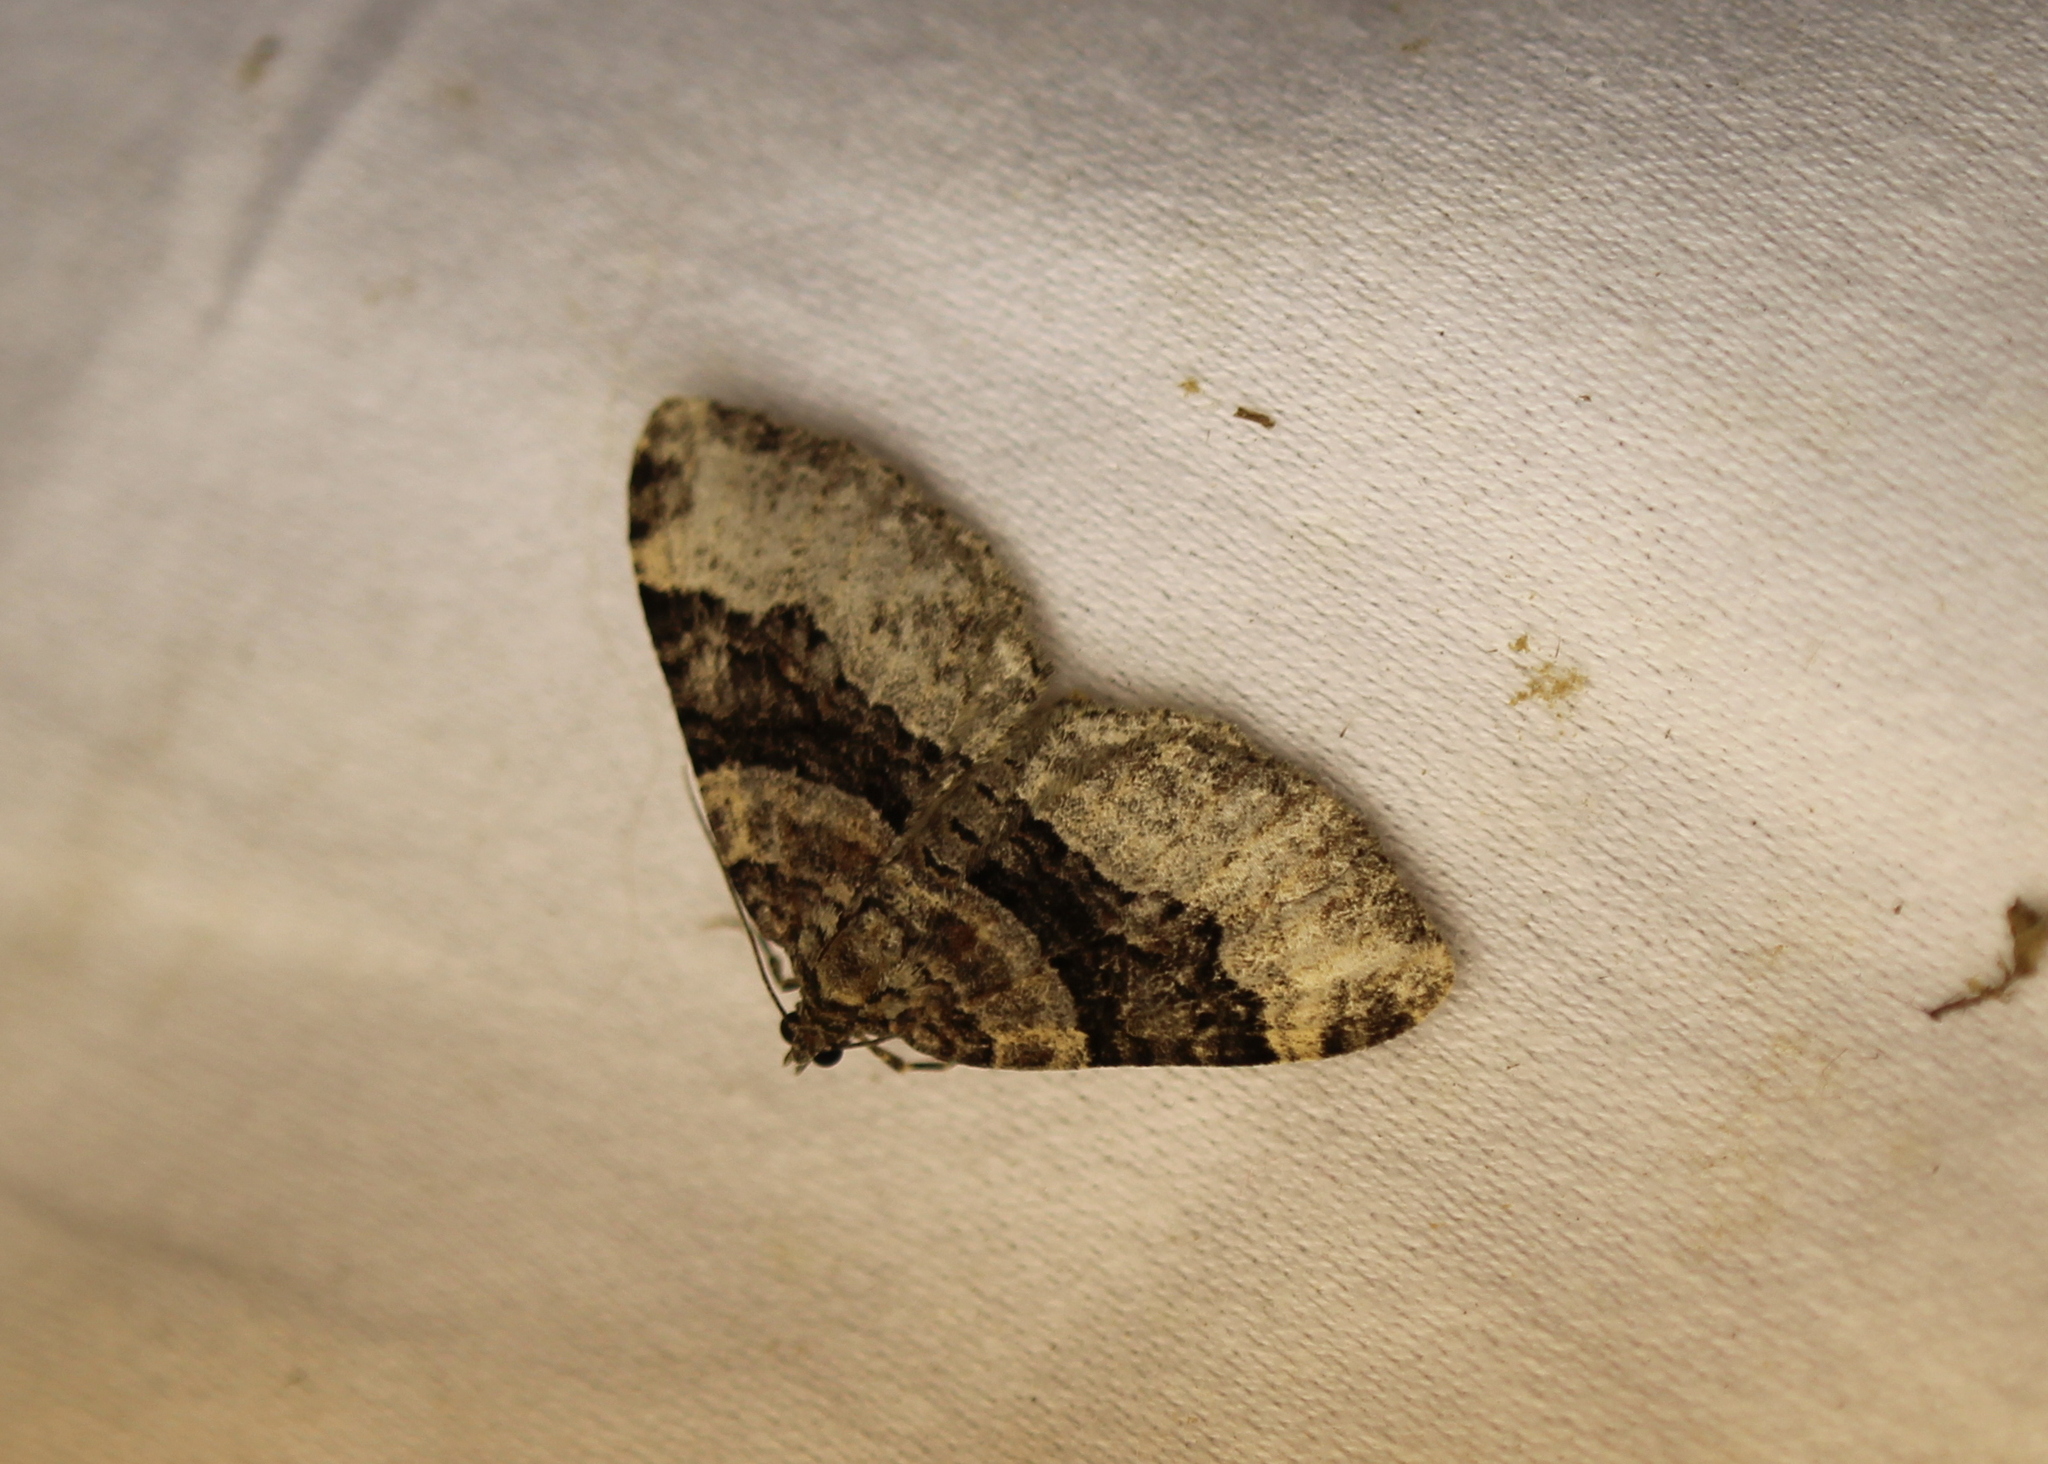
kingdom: Animalia
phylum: Arthropoda
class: Insecta
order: Lepidoptera
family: Geometridae
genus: Xanthorhoe
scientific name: Xanthorhoe lacustrata
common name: Toothed brown carpet
